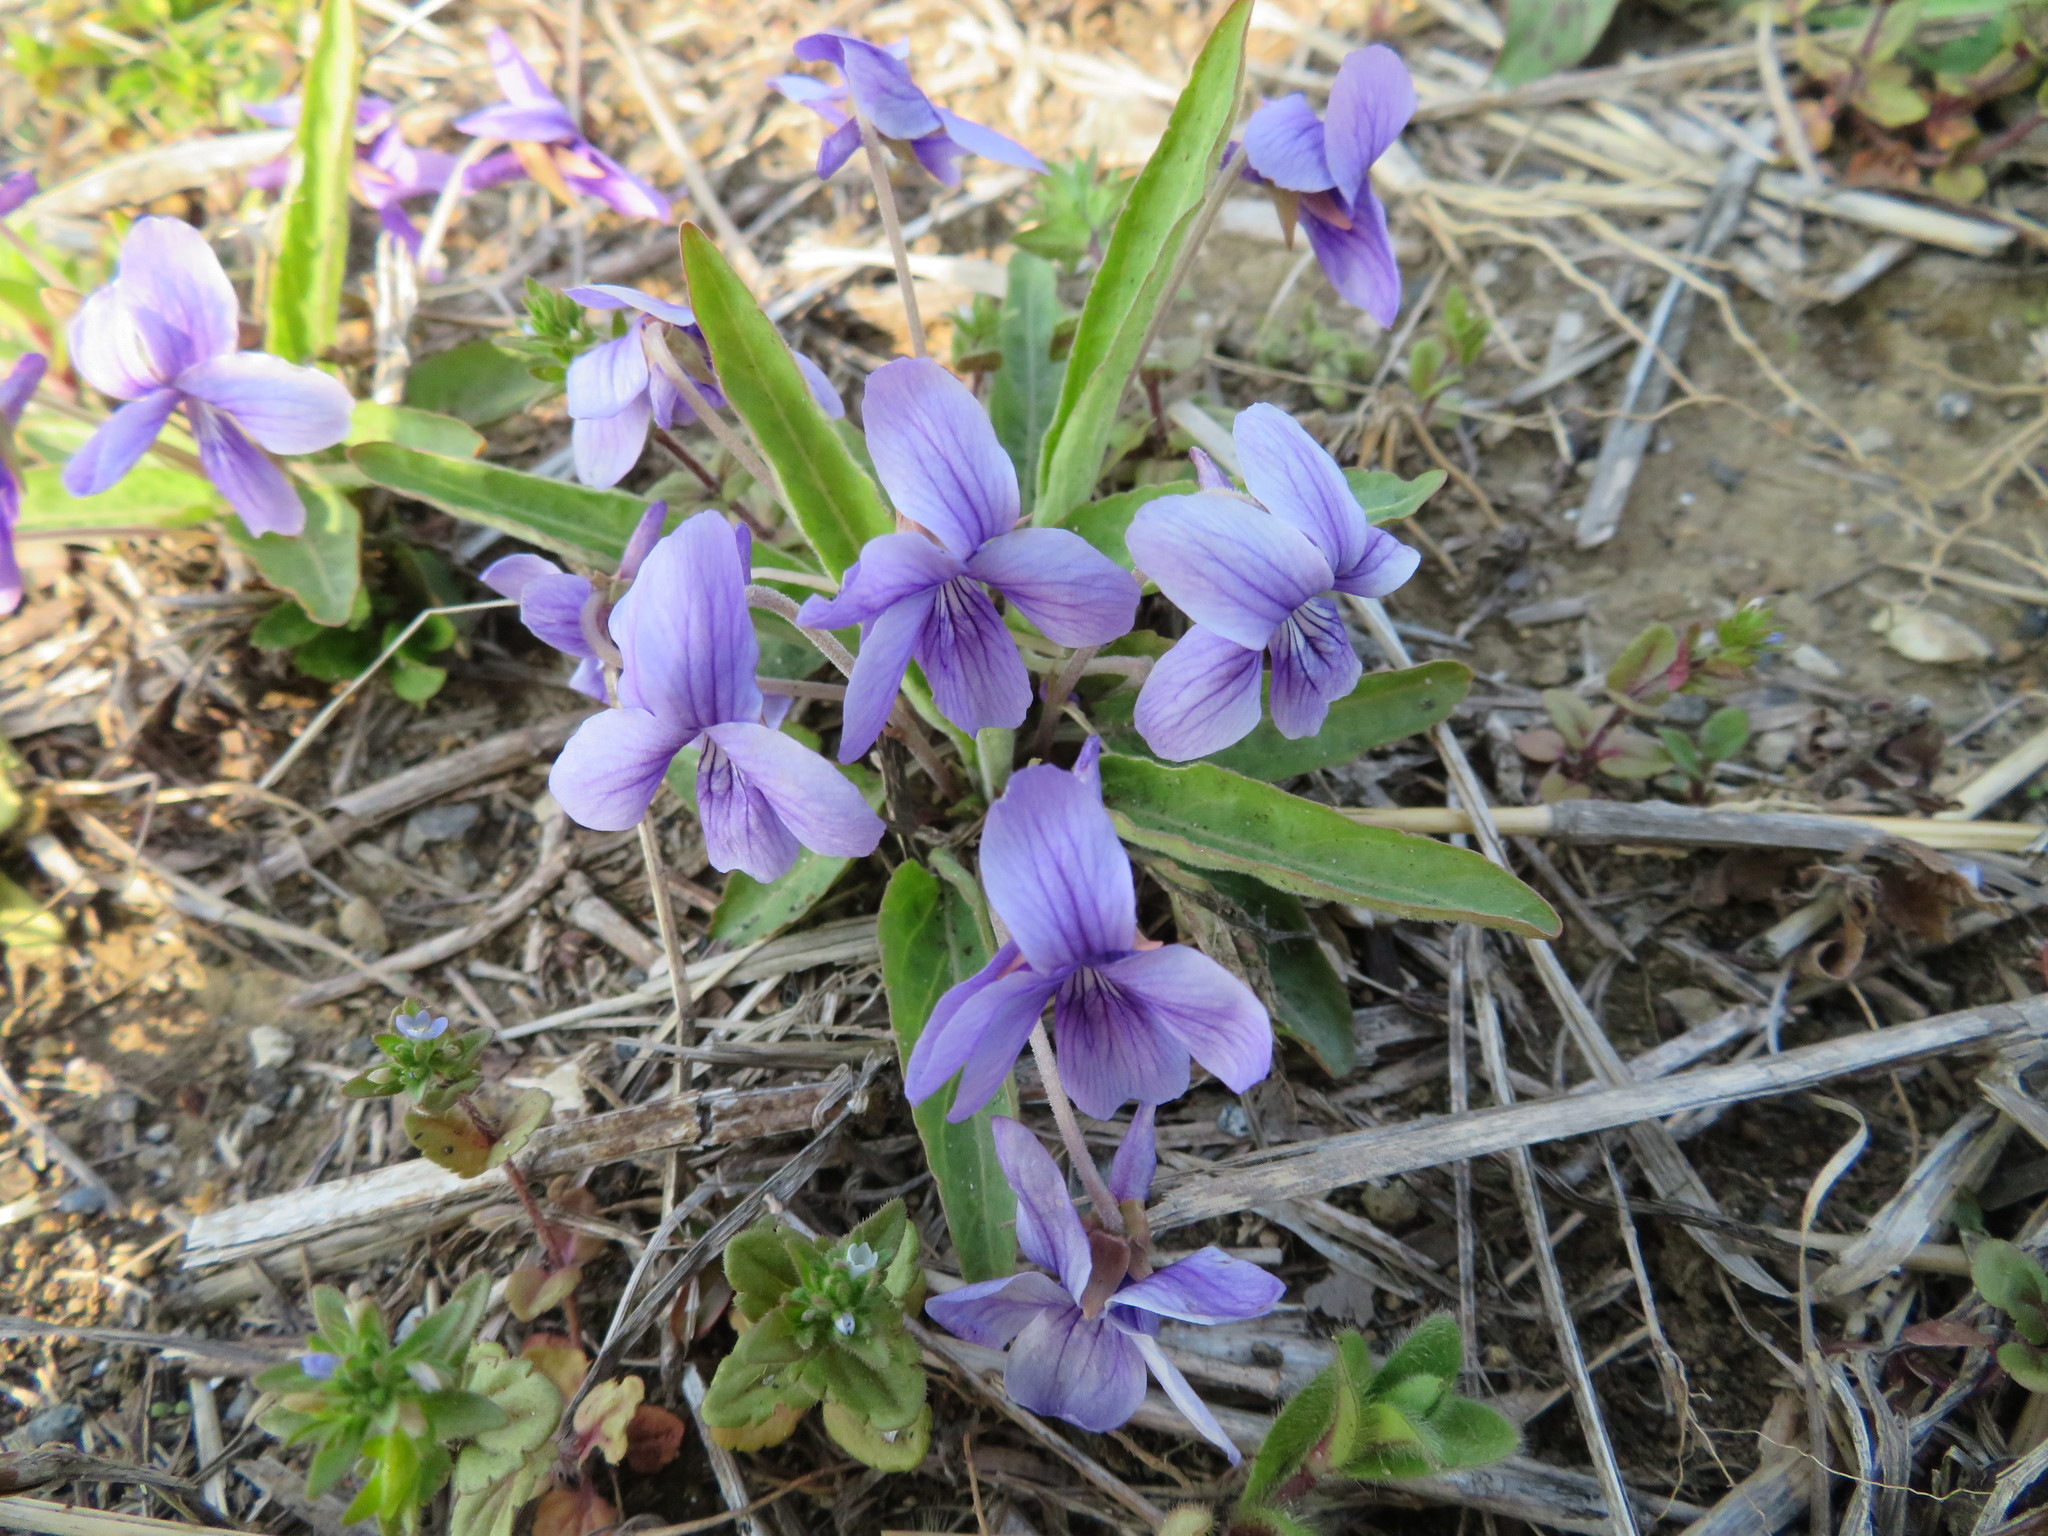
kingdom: Plantae
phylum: Tracheophyta
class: Magnoliopsida
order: Malpighiales
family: Violaceae
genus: Viola
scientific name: Viola mandshurica
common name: Manchuria violet
